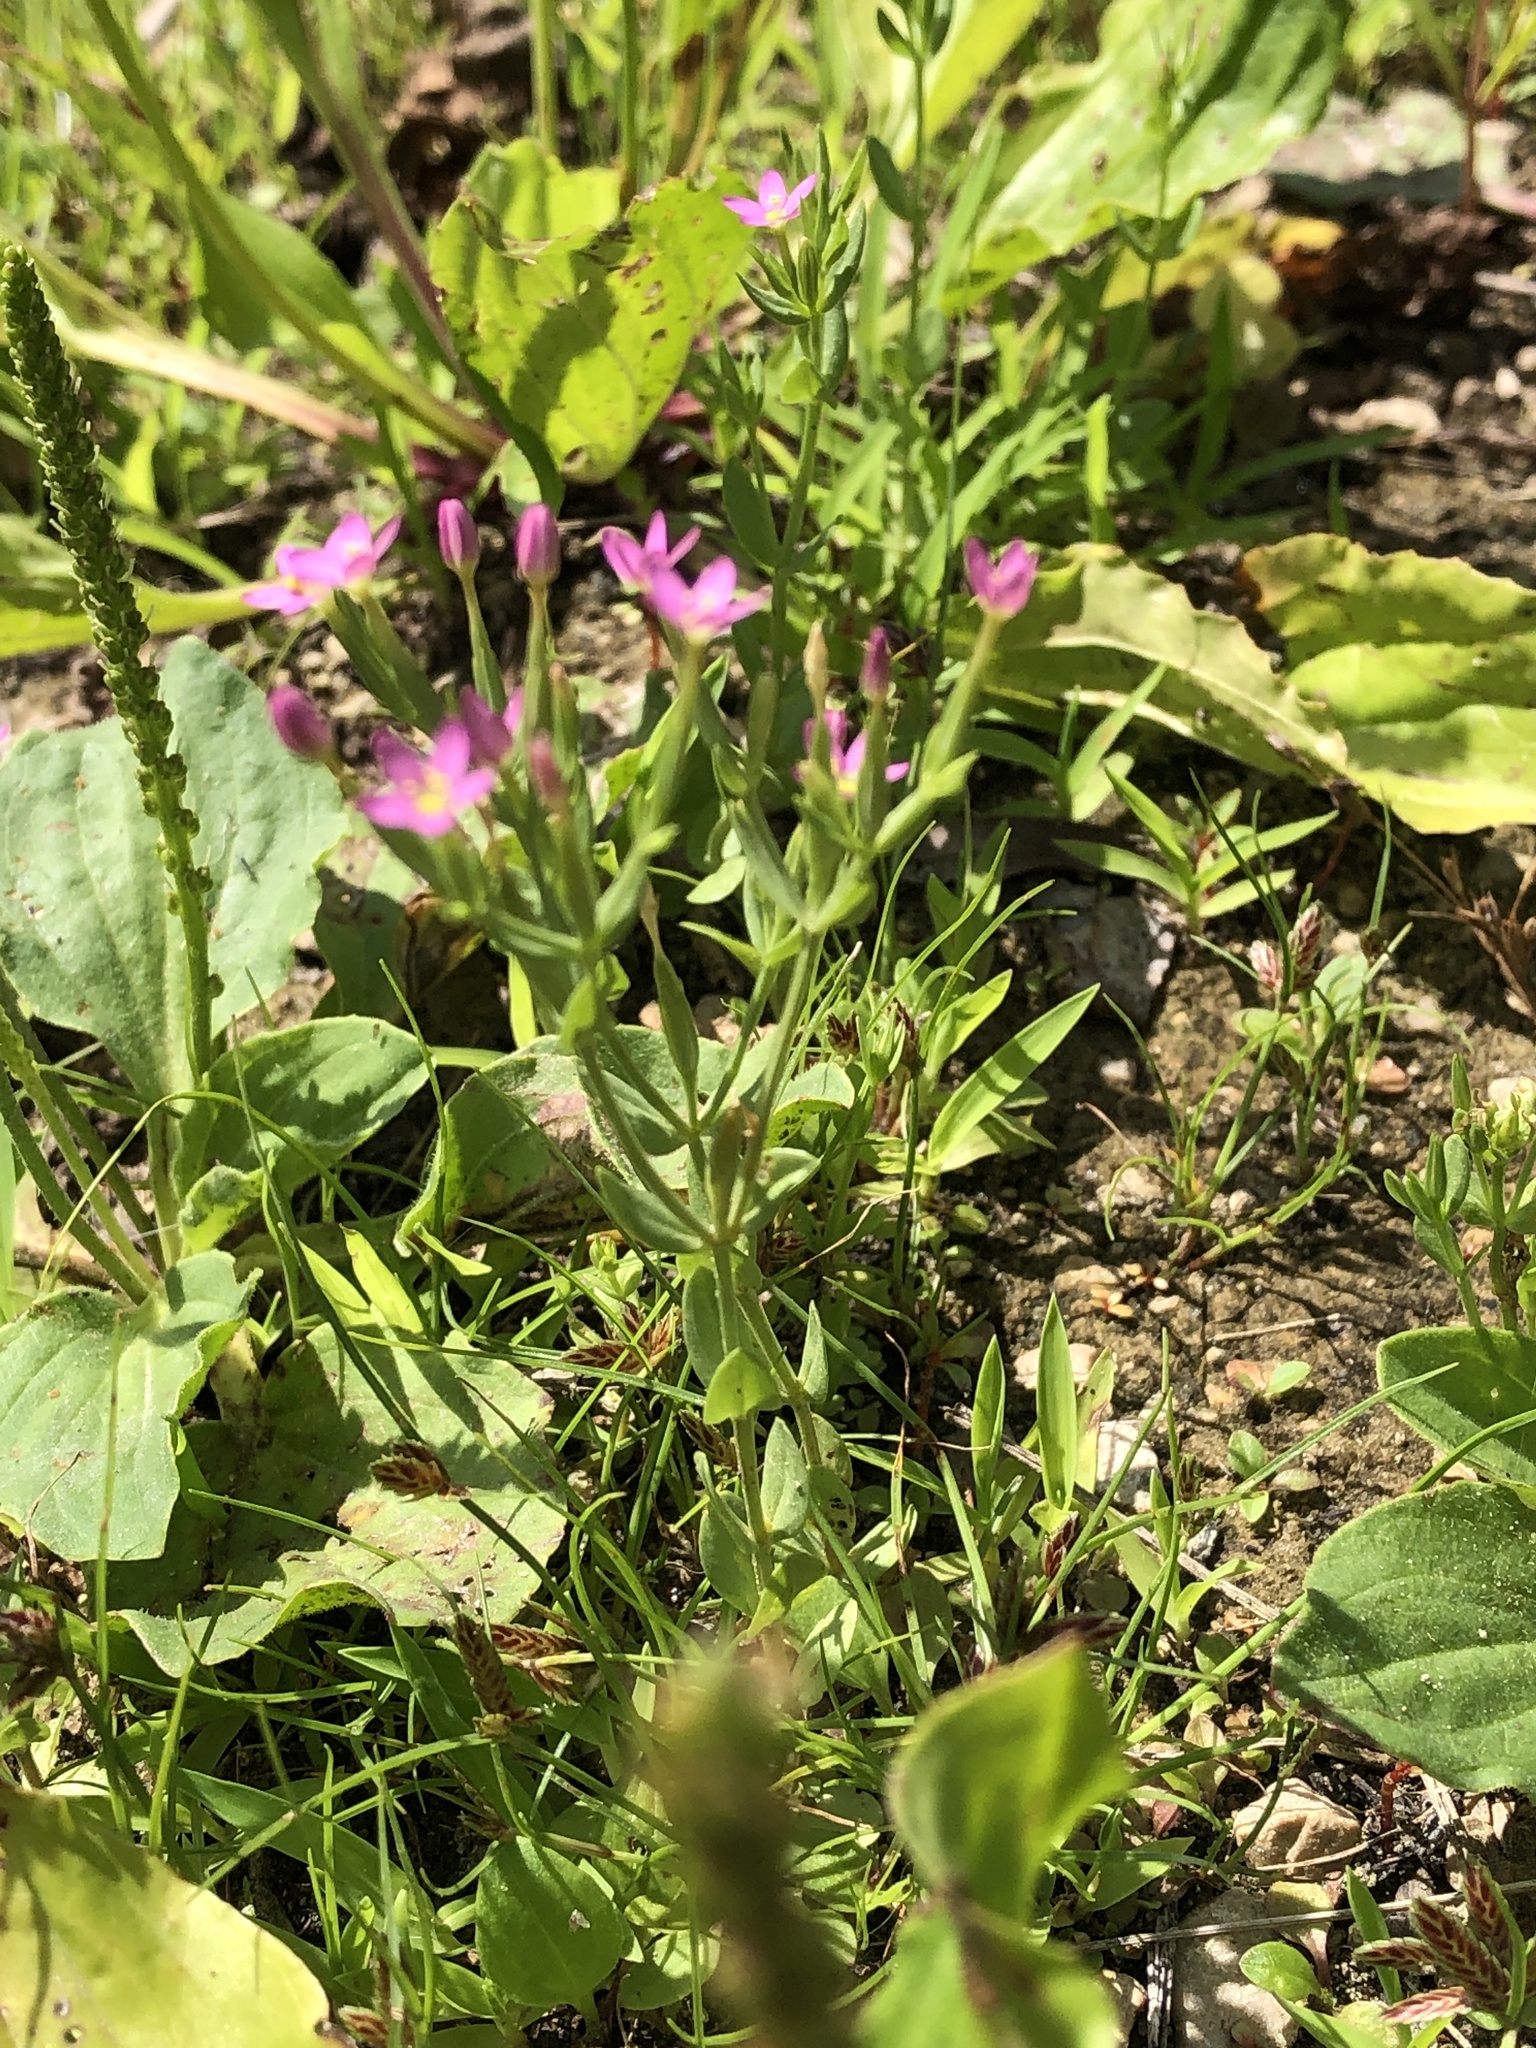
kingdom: Plantae
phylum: Tracheophyta
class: Magnoliopsida
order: Gentianales
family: Gentianaceae
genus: Centaurium
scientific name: Centaurium pulchellum
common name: Lesser centaury
